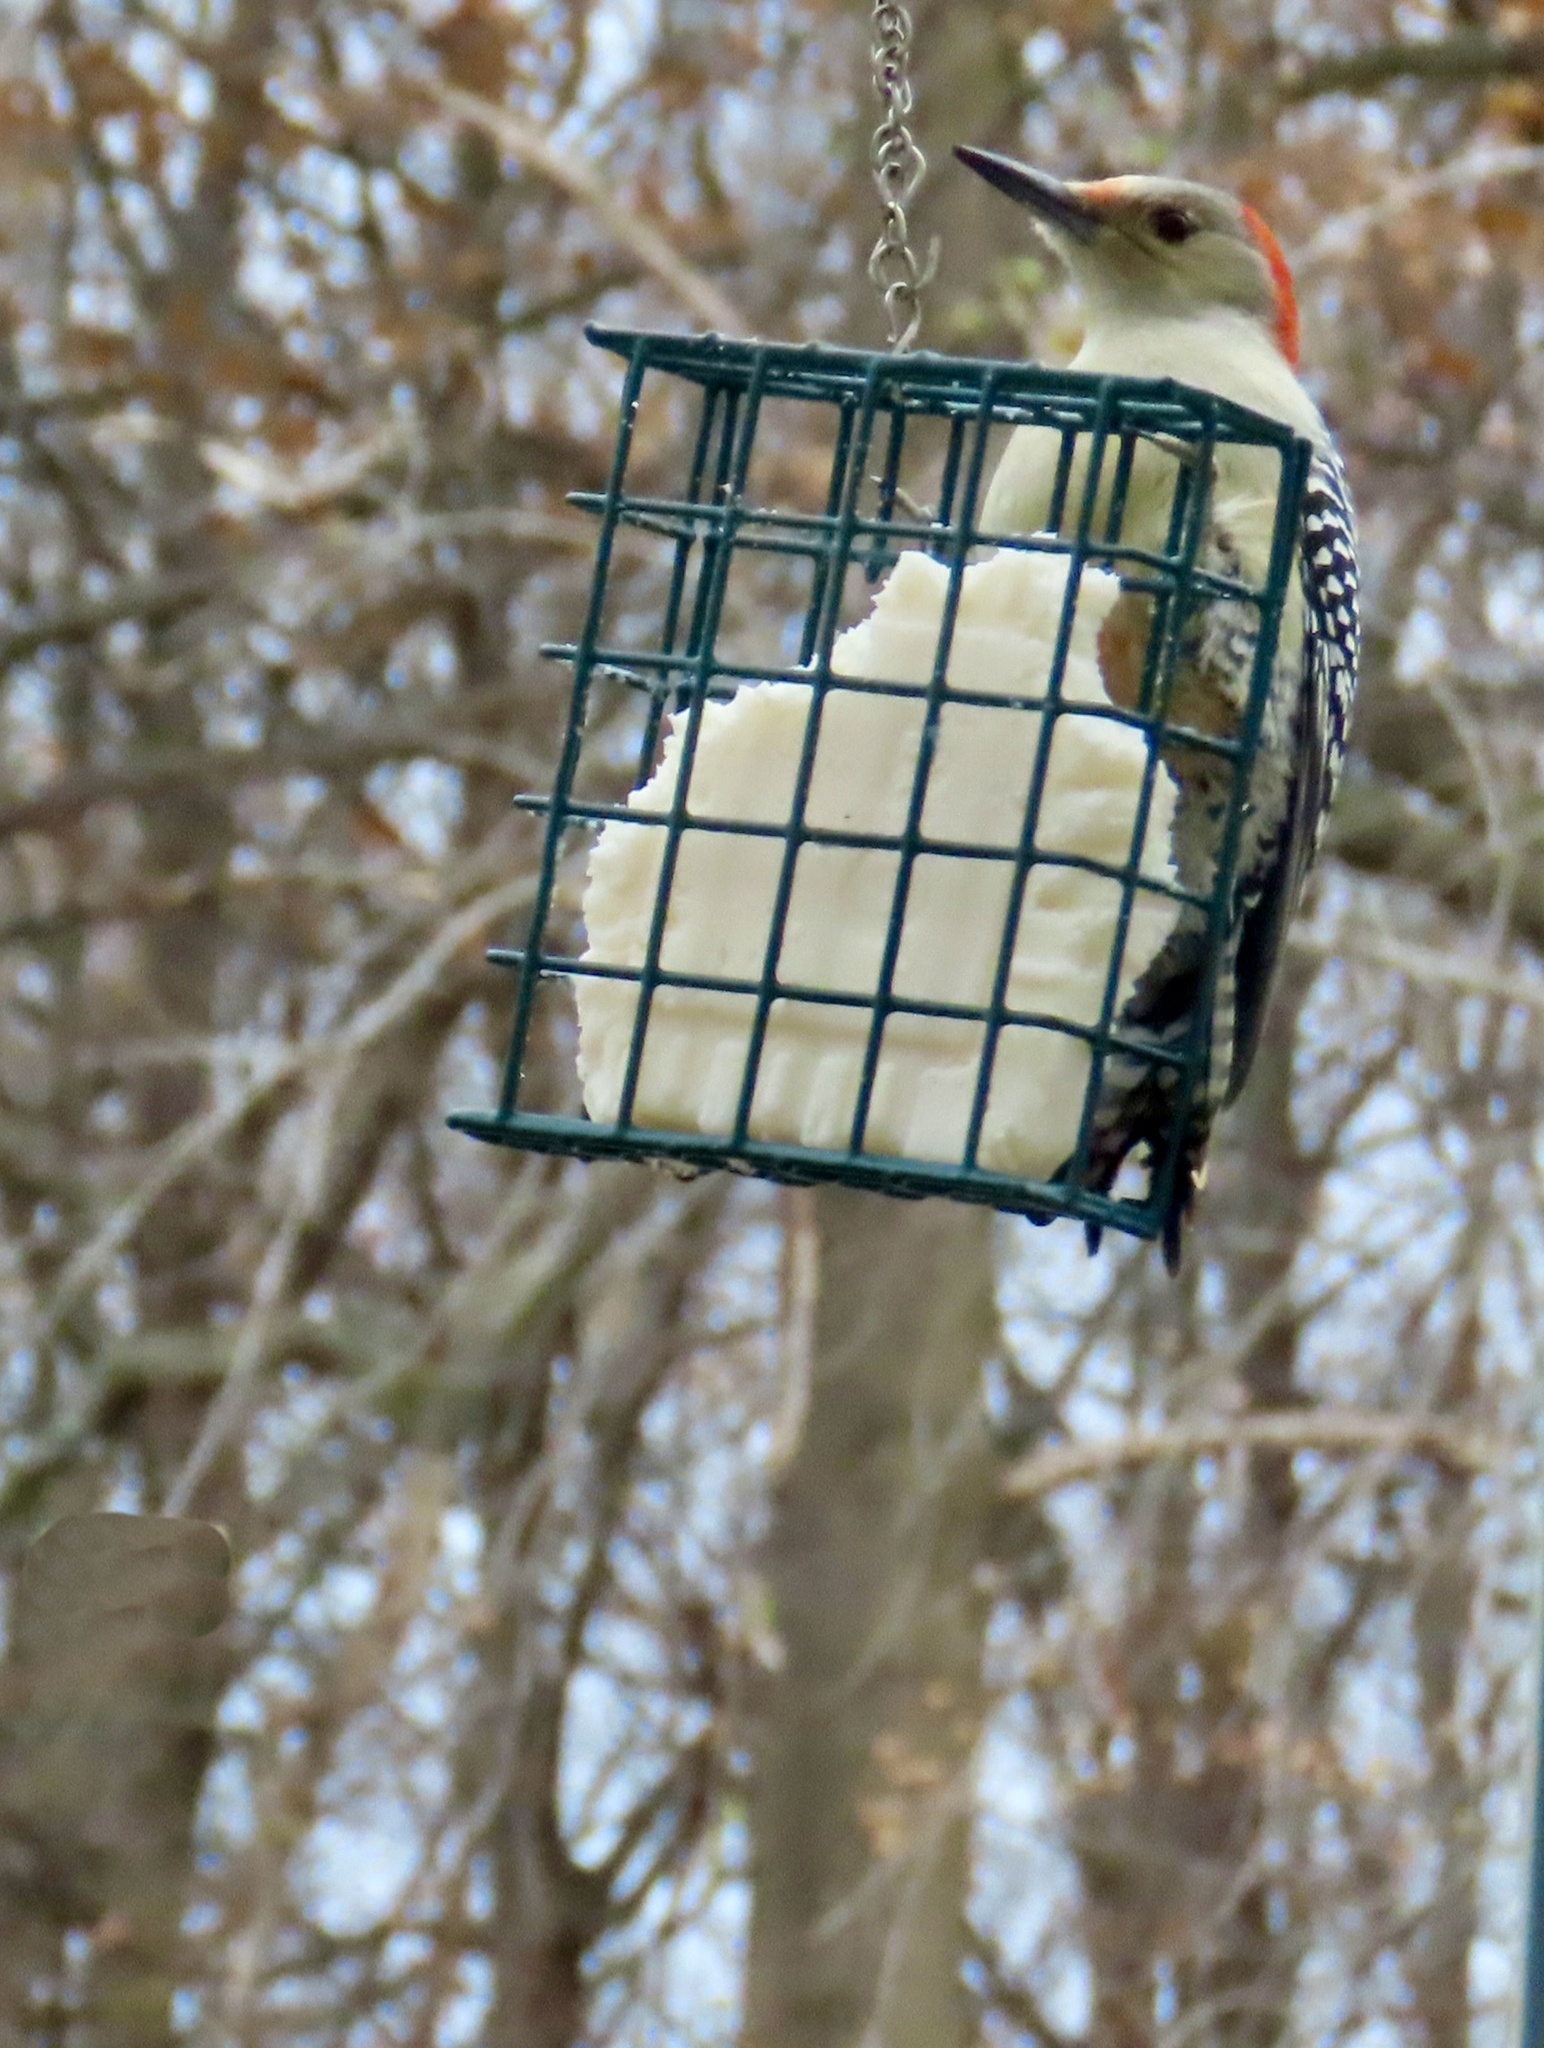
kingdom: Animalia
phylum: Chordata
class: Aves
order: Piciformes
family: Picidae
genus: Melanerpes
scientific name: Melanerpes carolinus
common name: Red-bellied woodpecker
